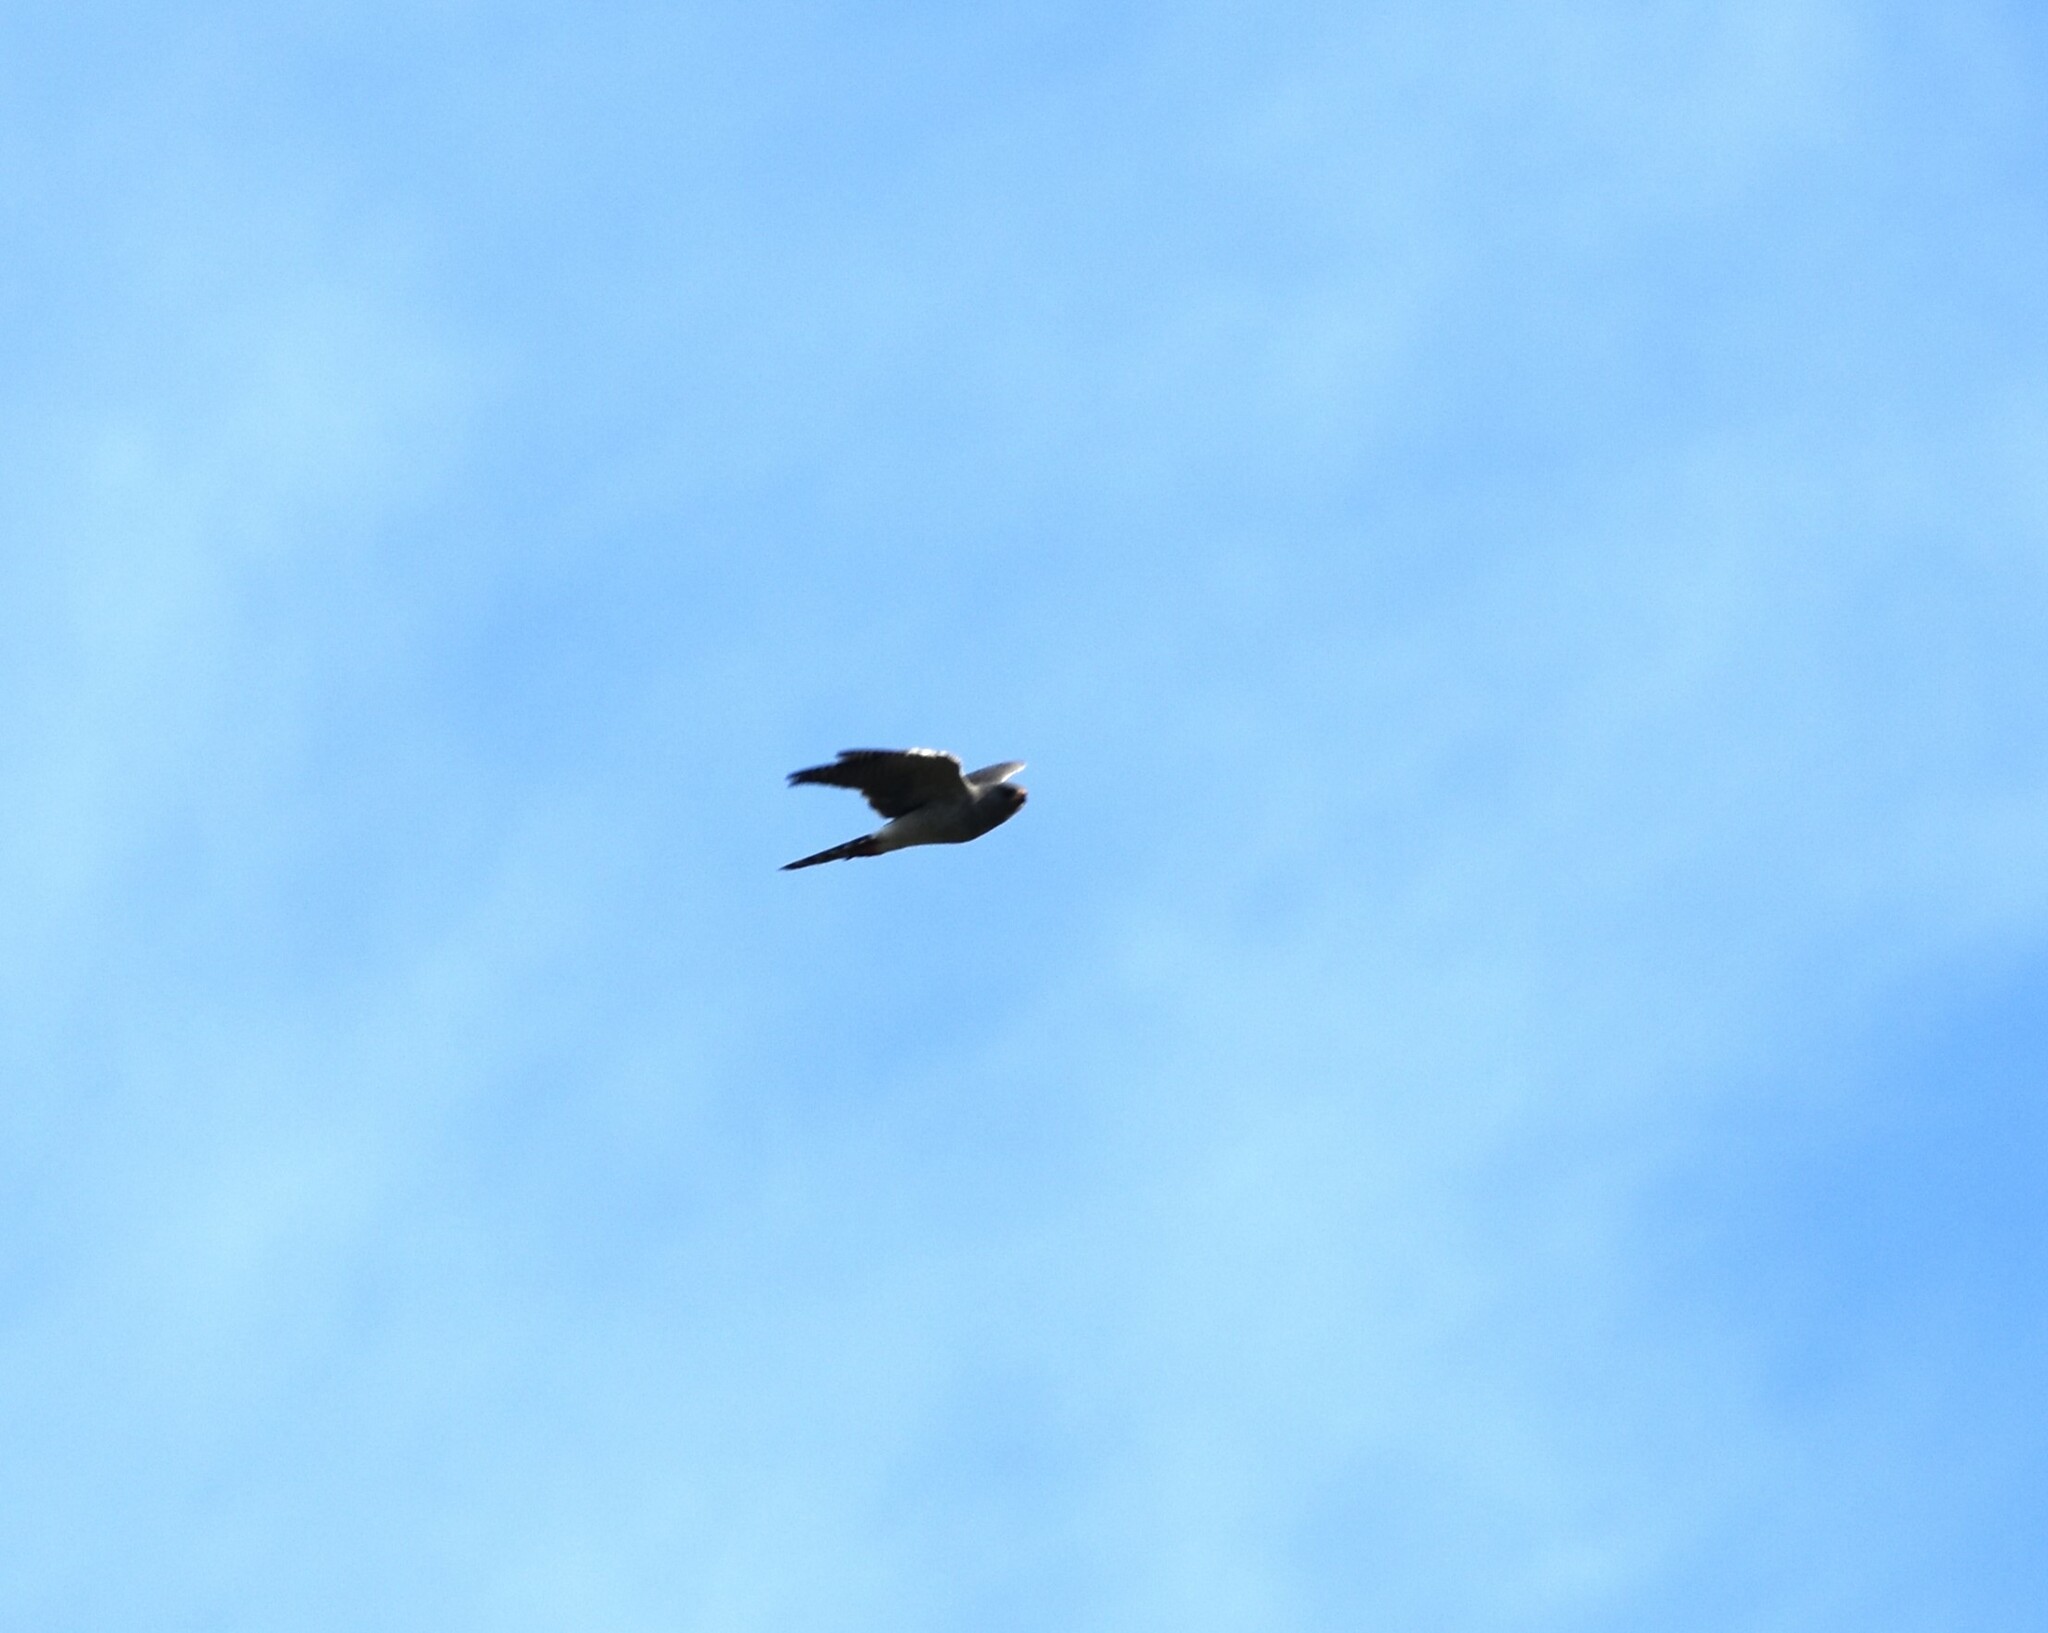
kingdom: Animalia
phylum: Chordata
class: Aves
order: Accipitriformes
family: Accipitridae
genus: Micronisus
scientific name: Micronisus gabar
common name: Gabar goshawk
